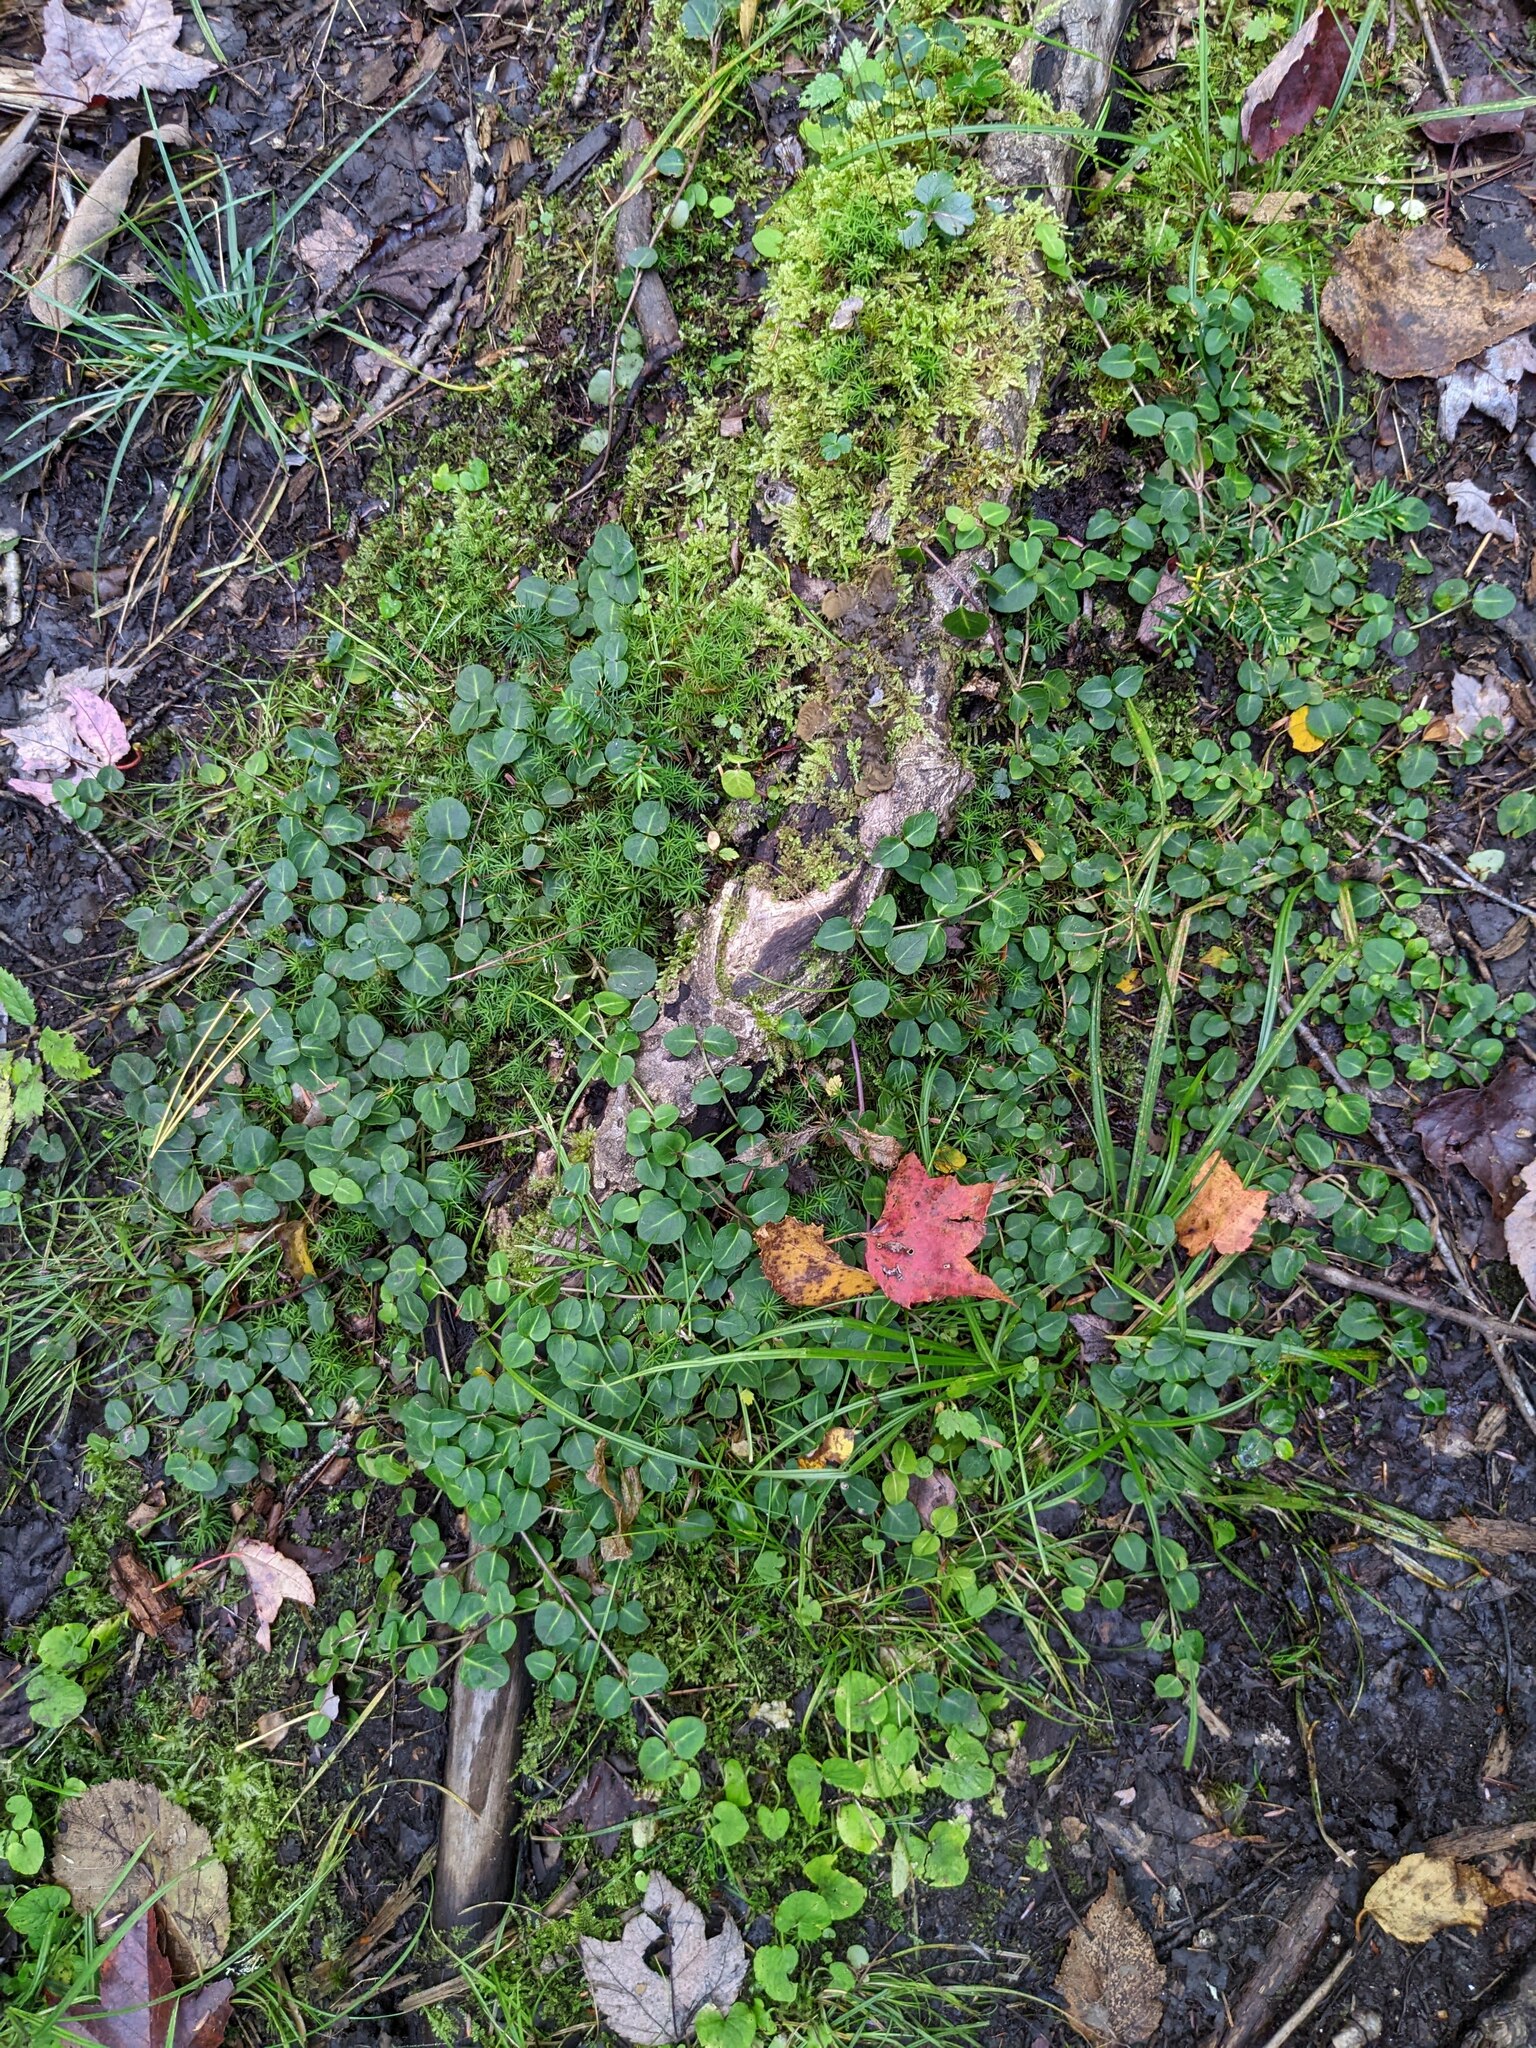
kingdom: Plantae
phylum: Tracheophyta
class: Magnoliopsida
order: Gentianales
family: Rubiaceae
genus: Mitchella
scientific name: Mitchella repens
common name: Partridge-berry
